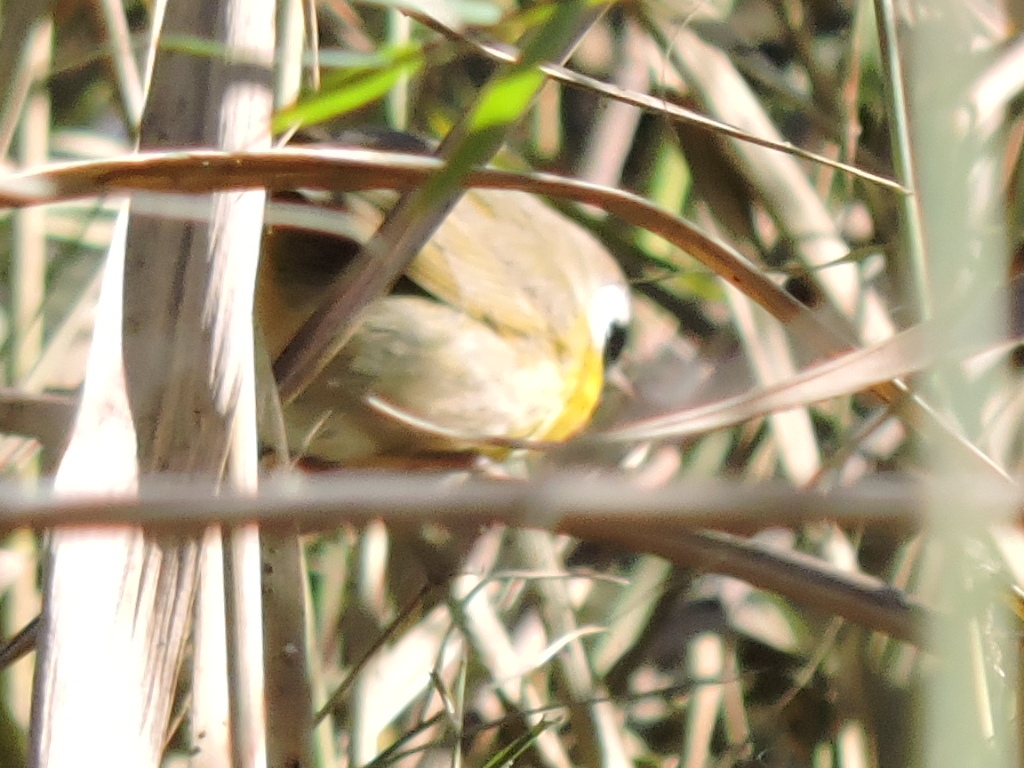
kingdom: Animalia
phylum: Chordata
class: Aves
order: Passeriformes
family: Parulidae
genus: Geothlypis
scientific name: Geothlypis trichas
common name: Common yellowthroat
